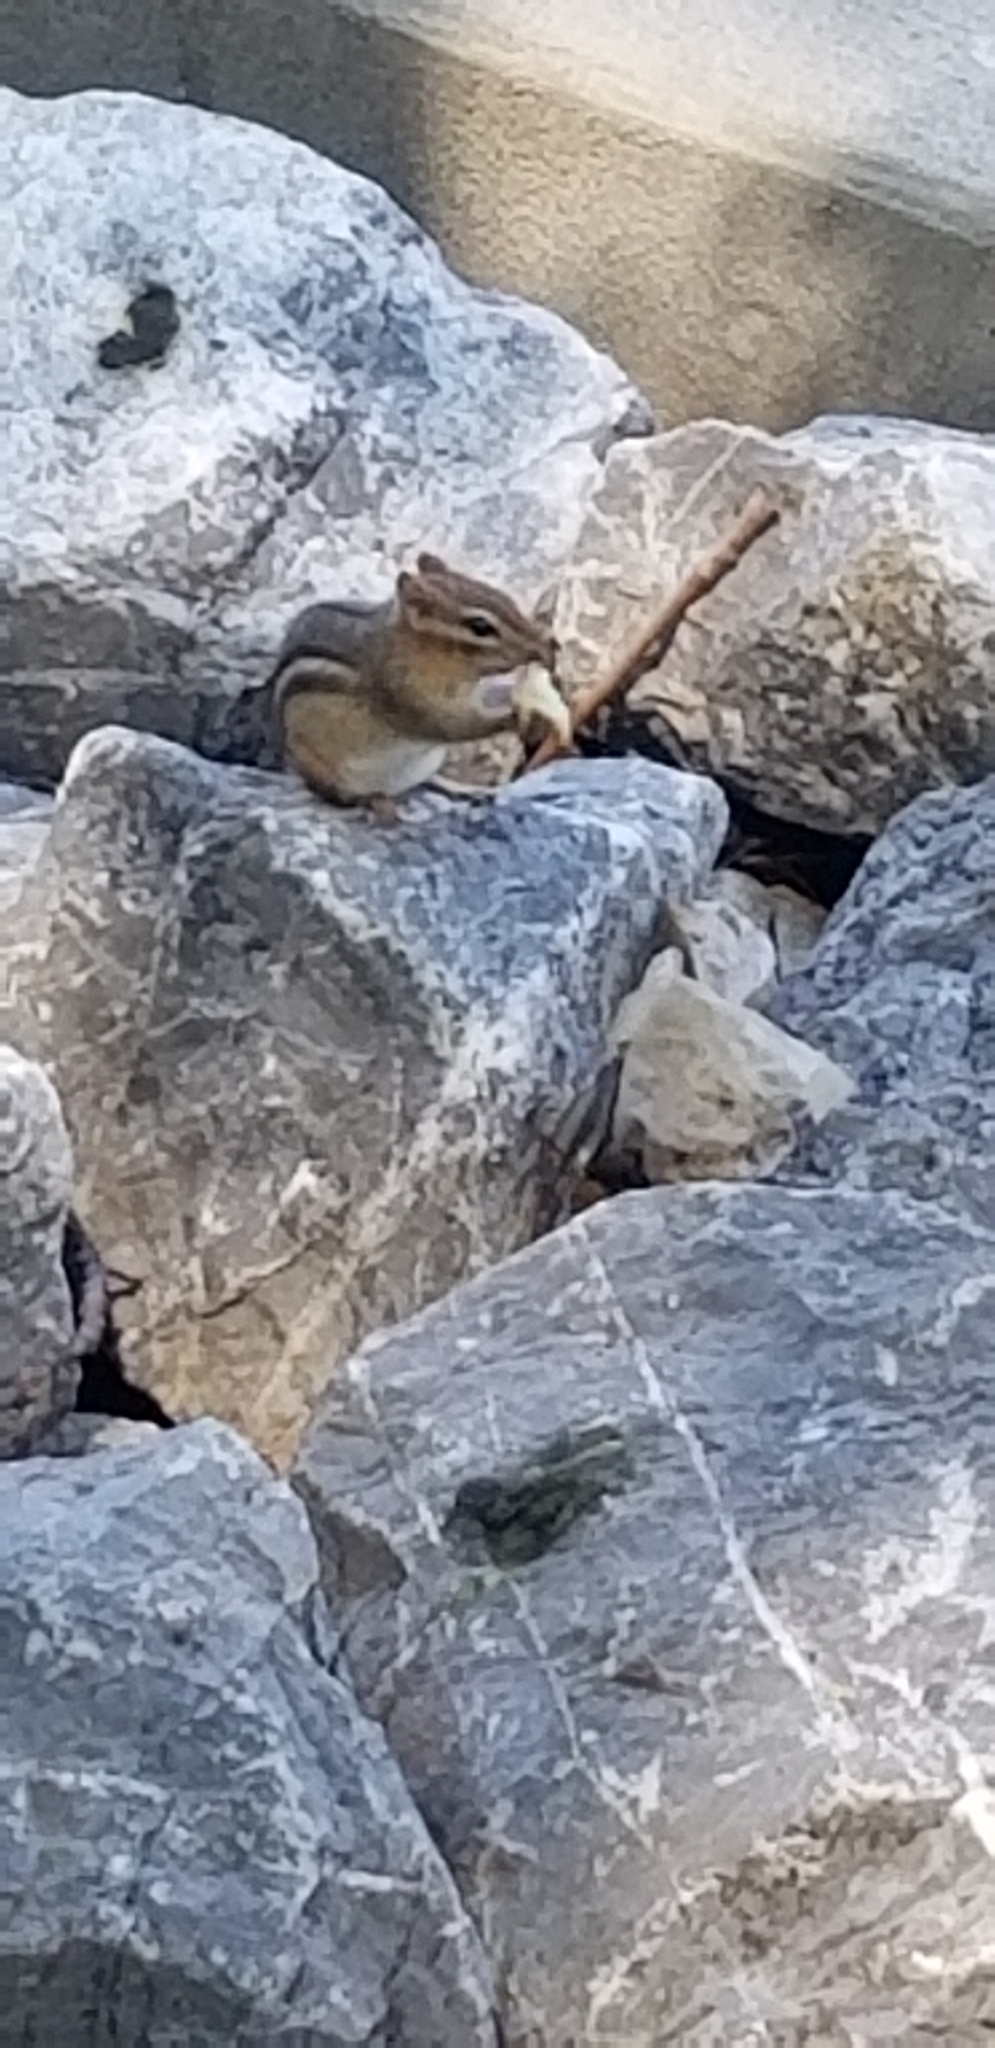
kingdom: Animalia
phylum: Chordata
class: Mammalia
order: Rodentia
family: Sciuridae
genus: Tamias
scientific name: Tamias striatus
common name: Eastern chipmunk
